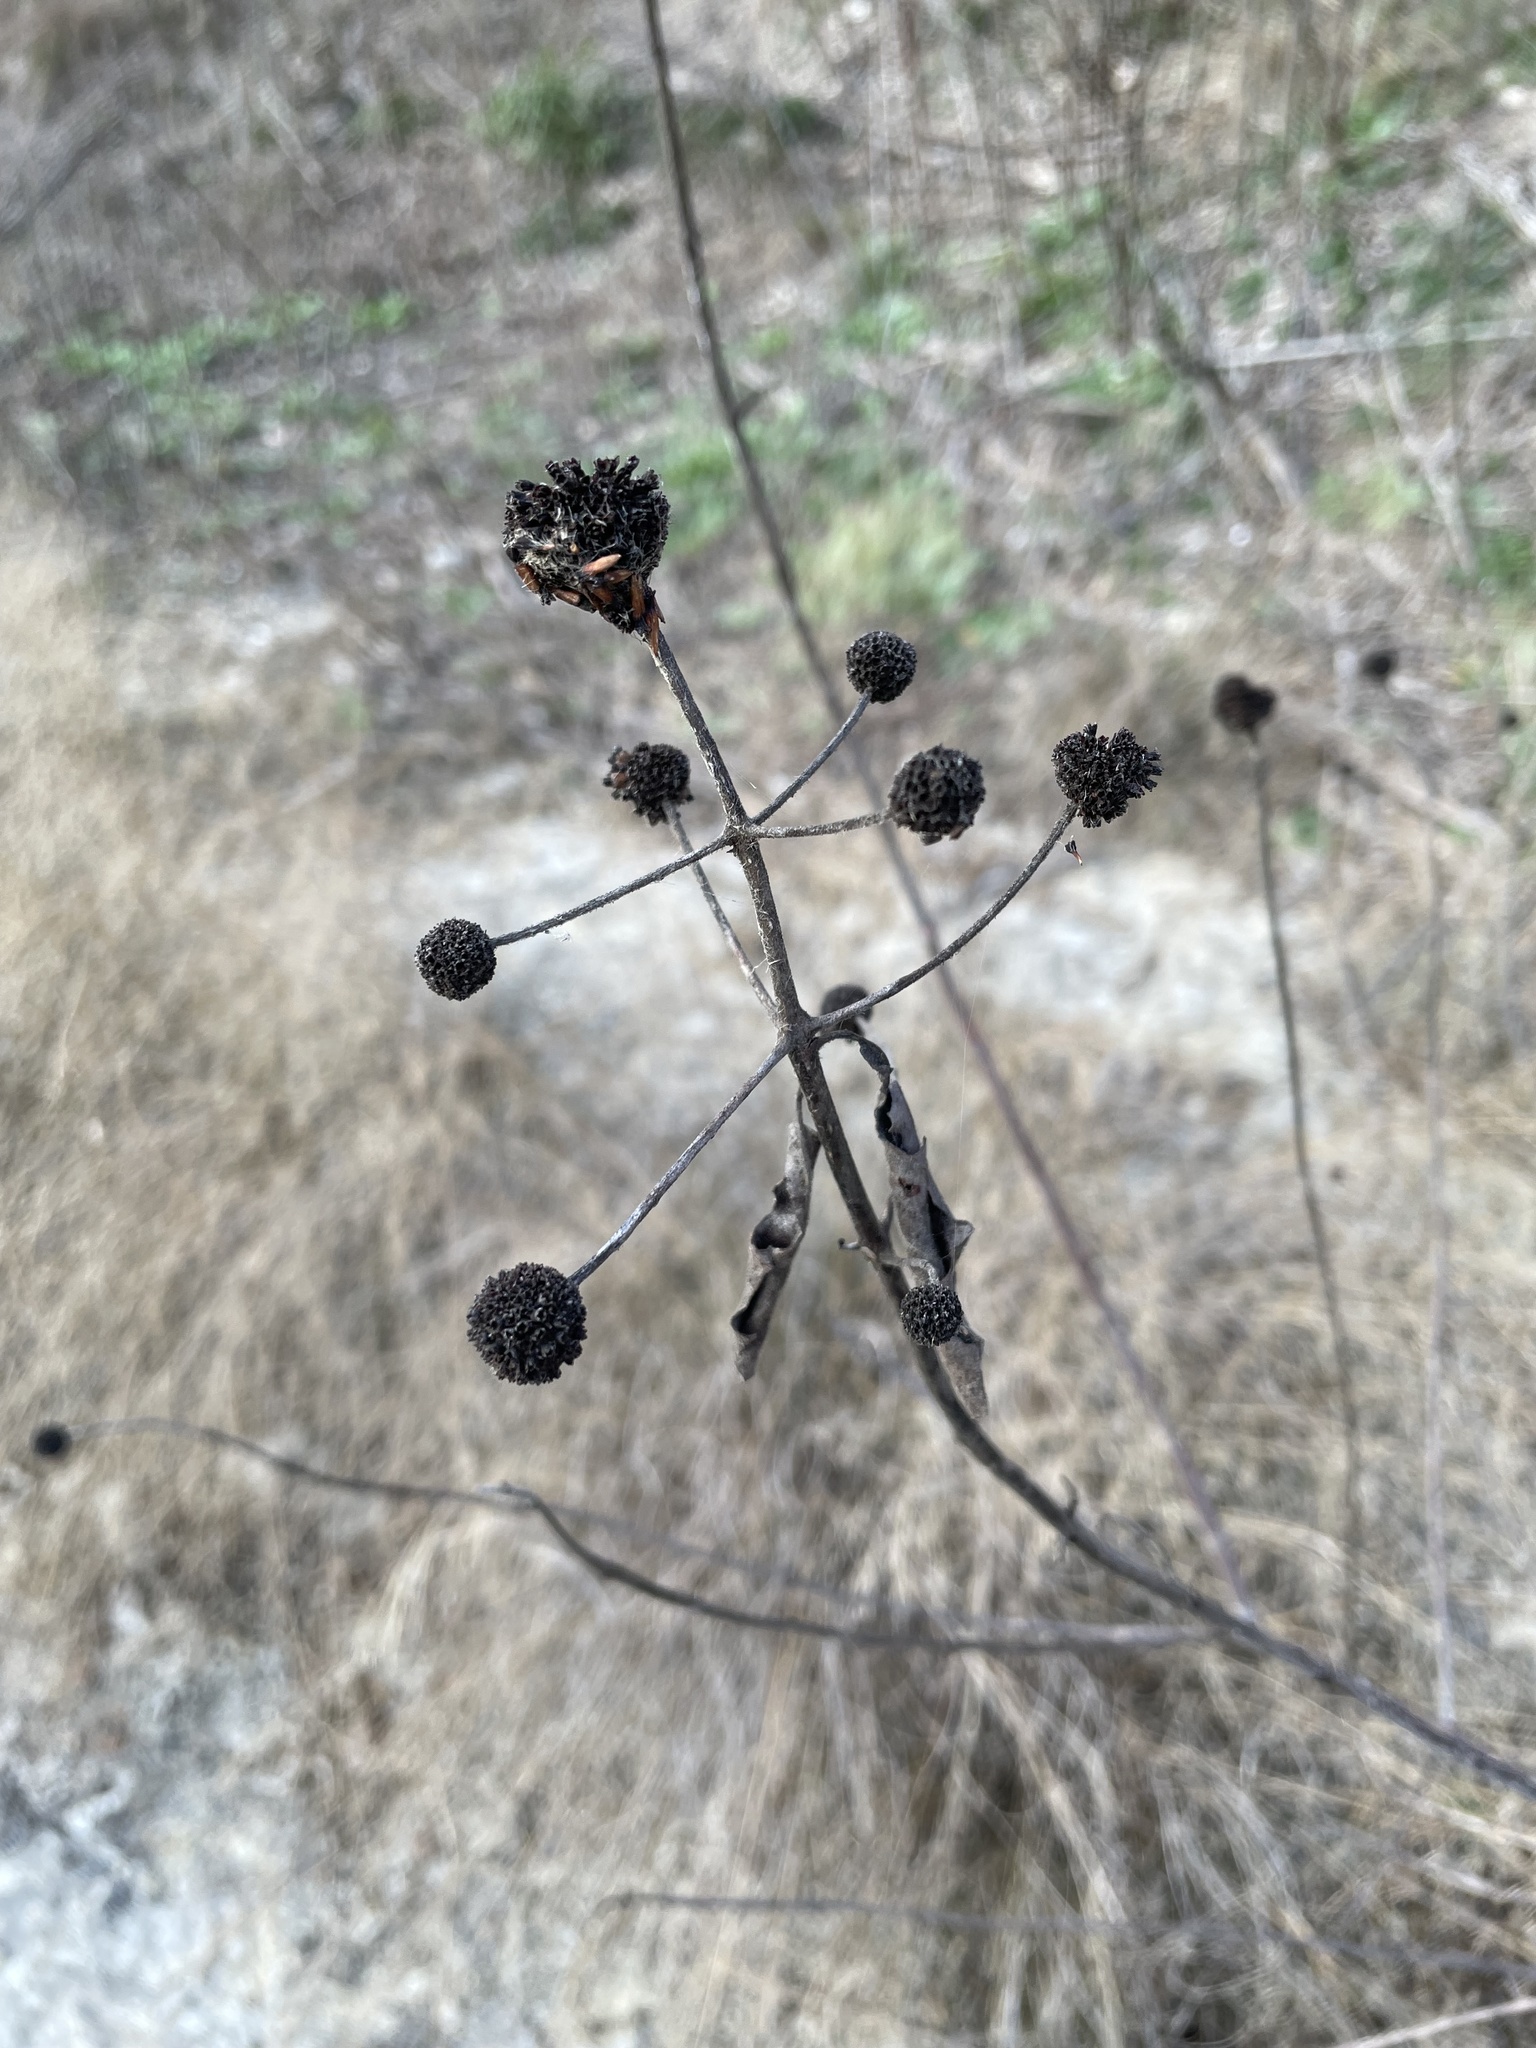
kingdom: Plantae
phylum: Tracheophyta
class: Magnoliopsida
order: Gentianales
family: Rubiaceae
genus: Cephalanthus
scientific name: Cephalanthus occidentalis
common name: Button-willow
